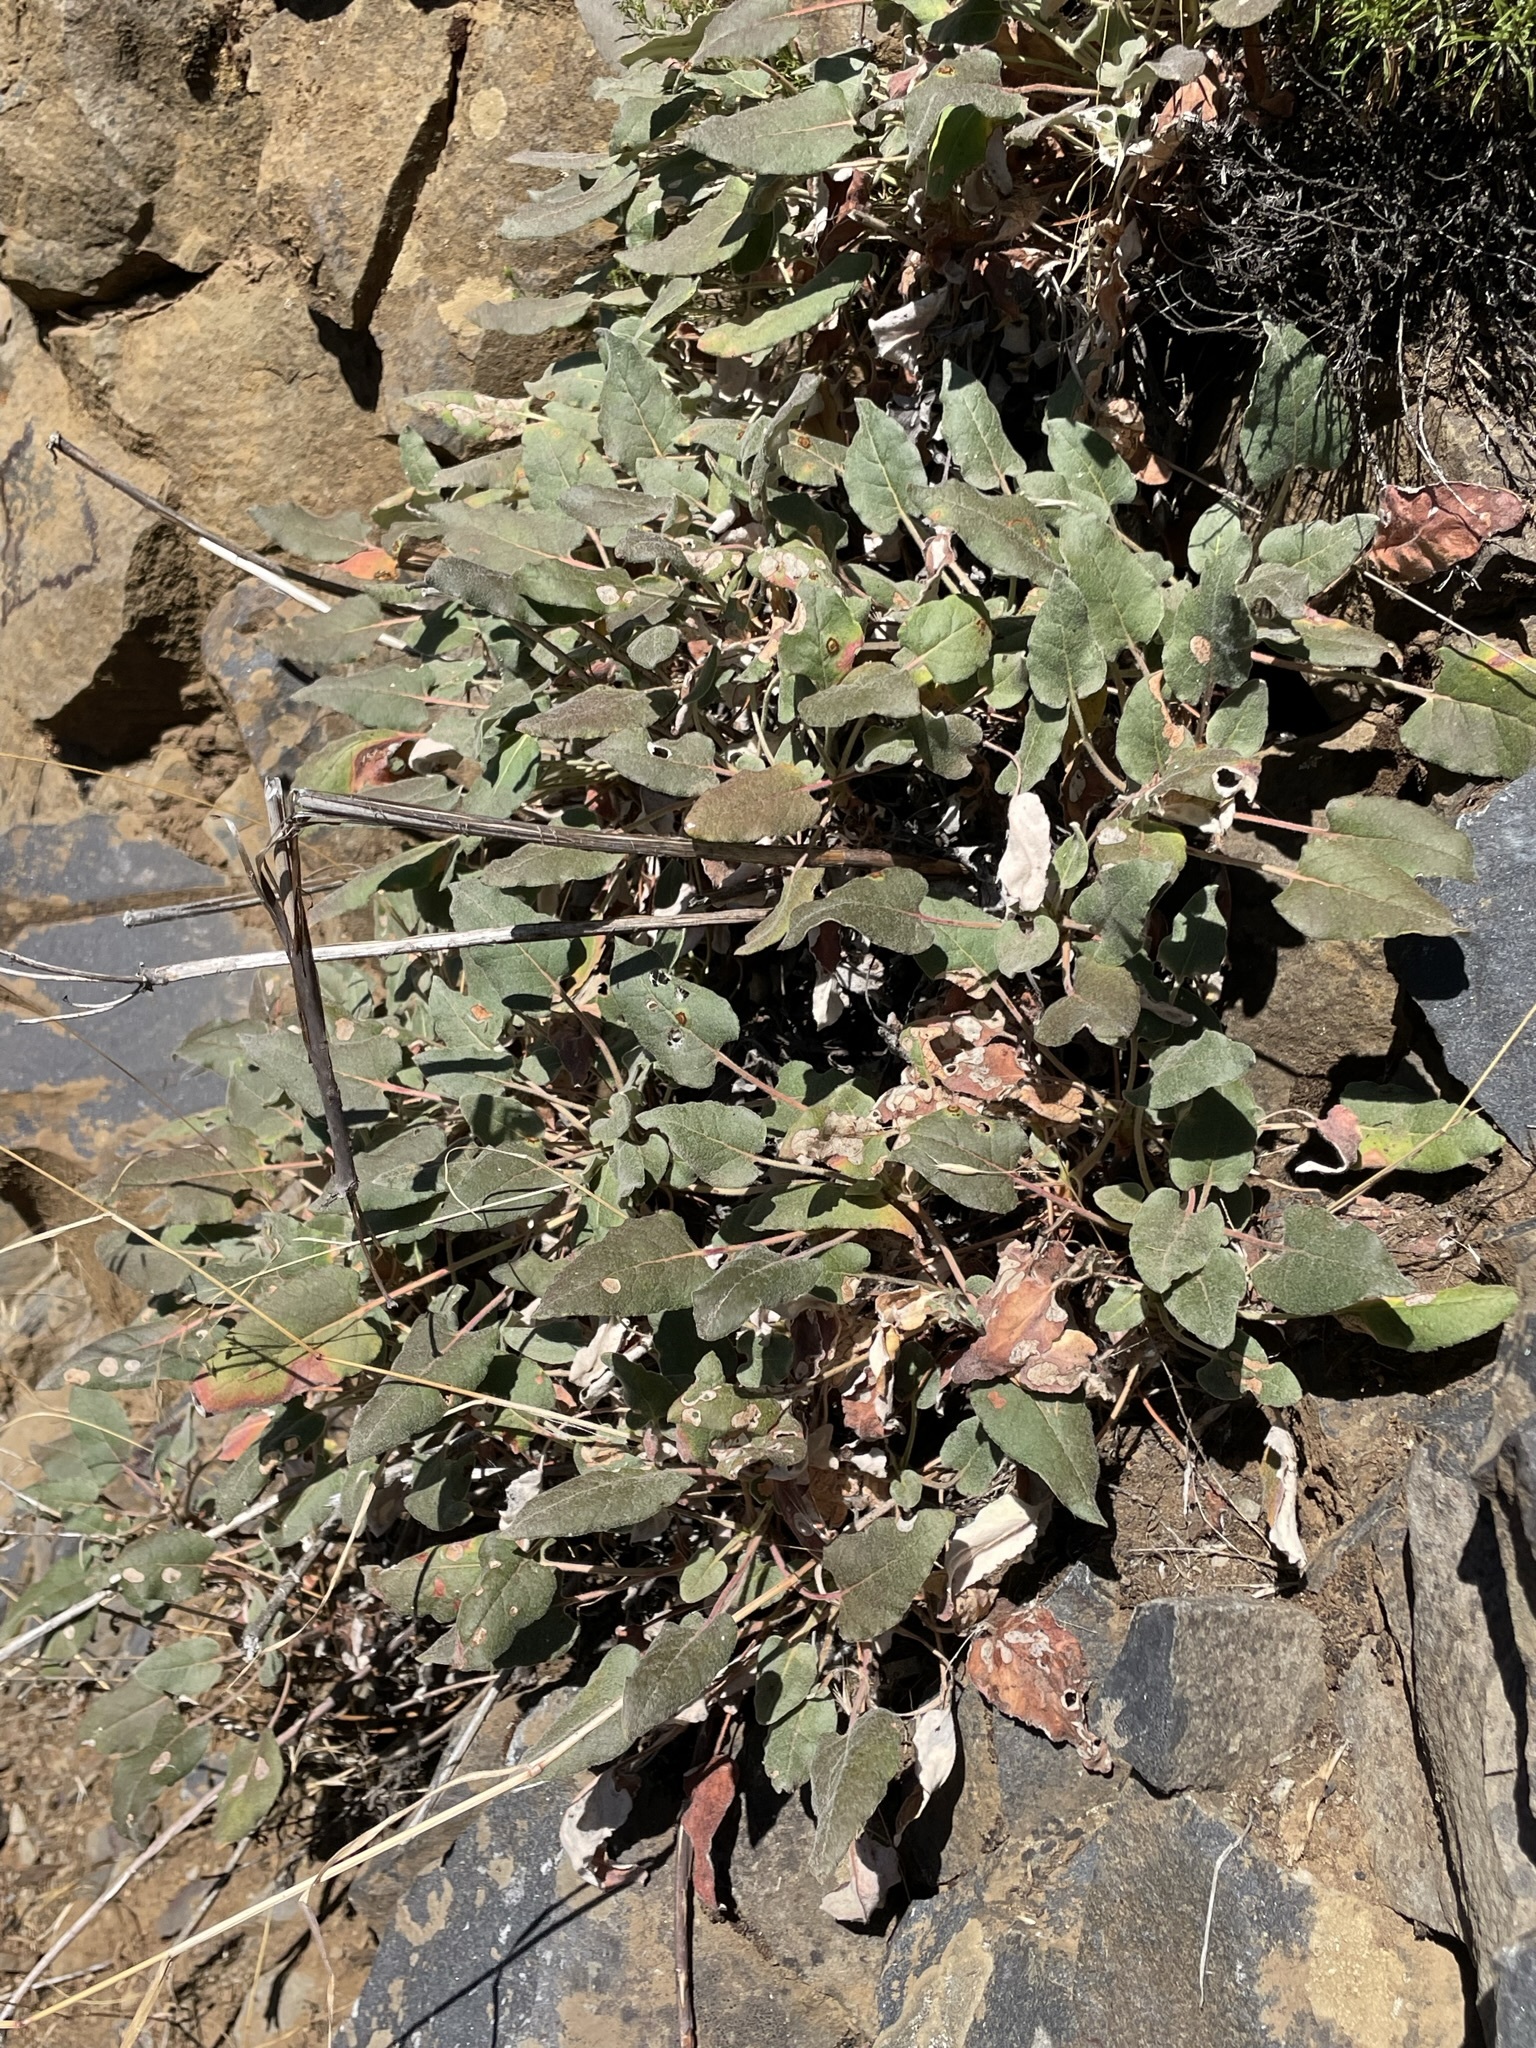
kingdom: Plantae
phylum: Tracheophyta
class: Magnoliopsida
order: Caryophyllales
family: Polygonaceae
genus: Eriogonum
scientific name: Eriogonum compositum
